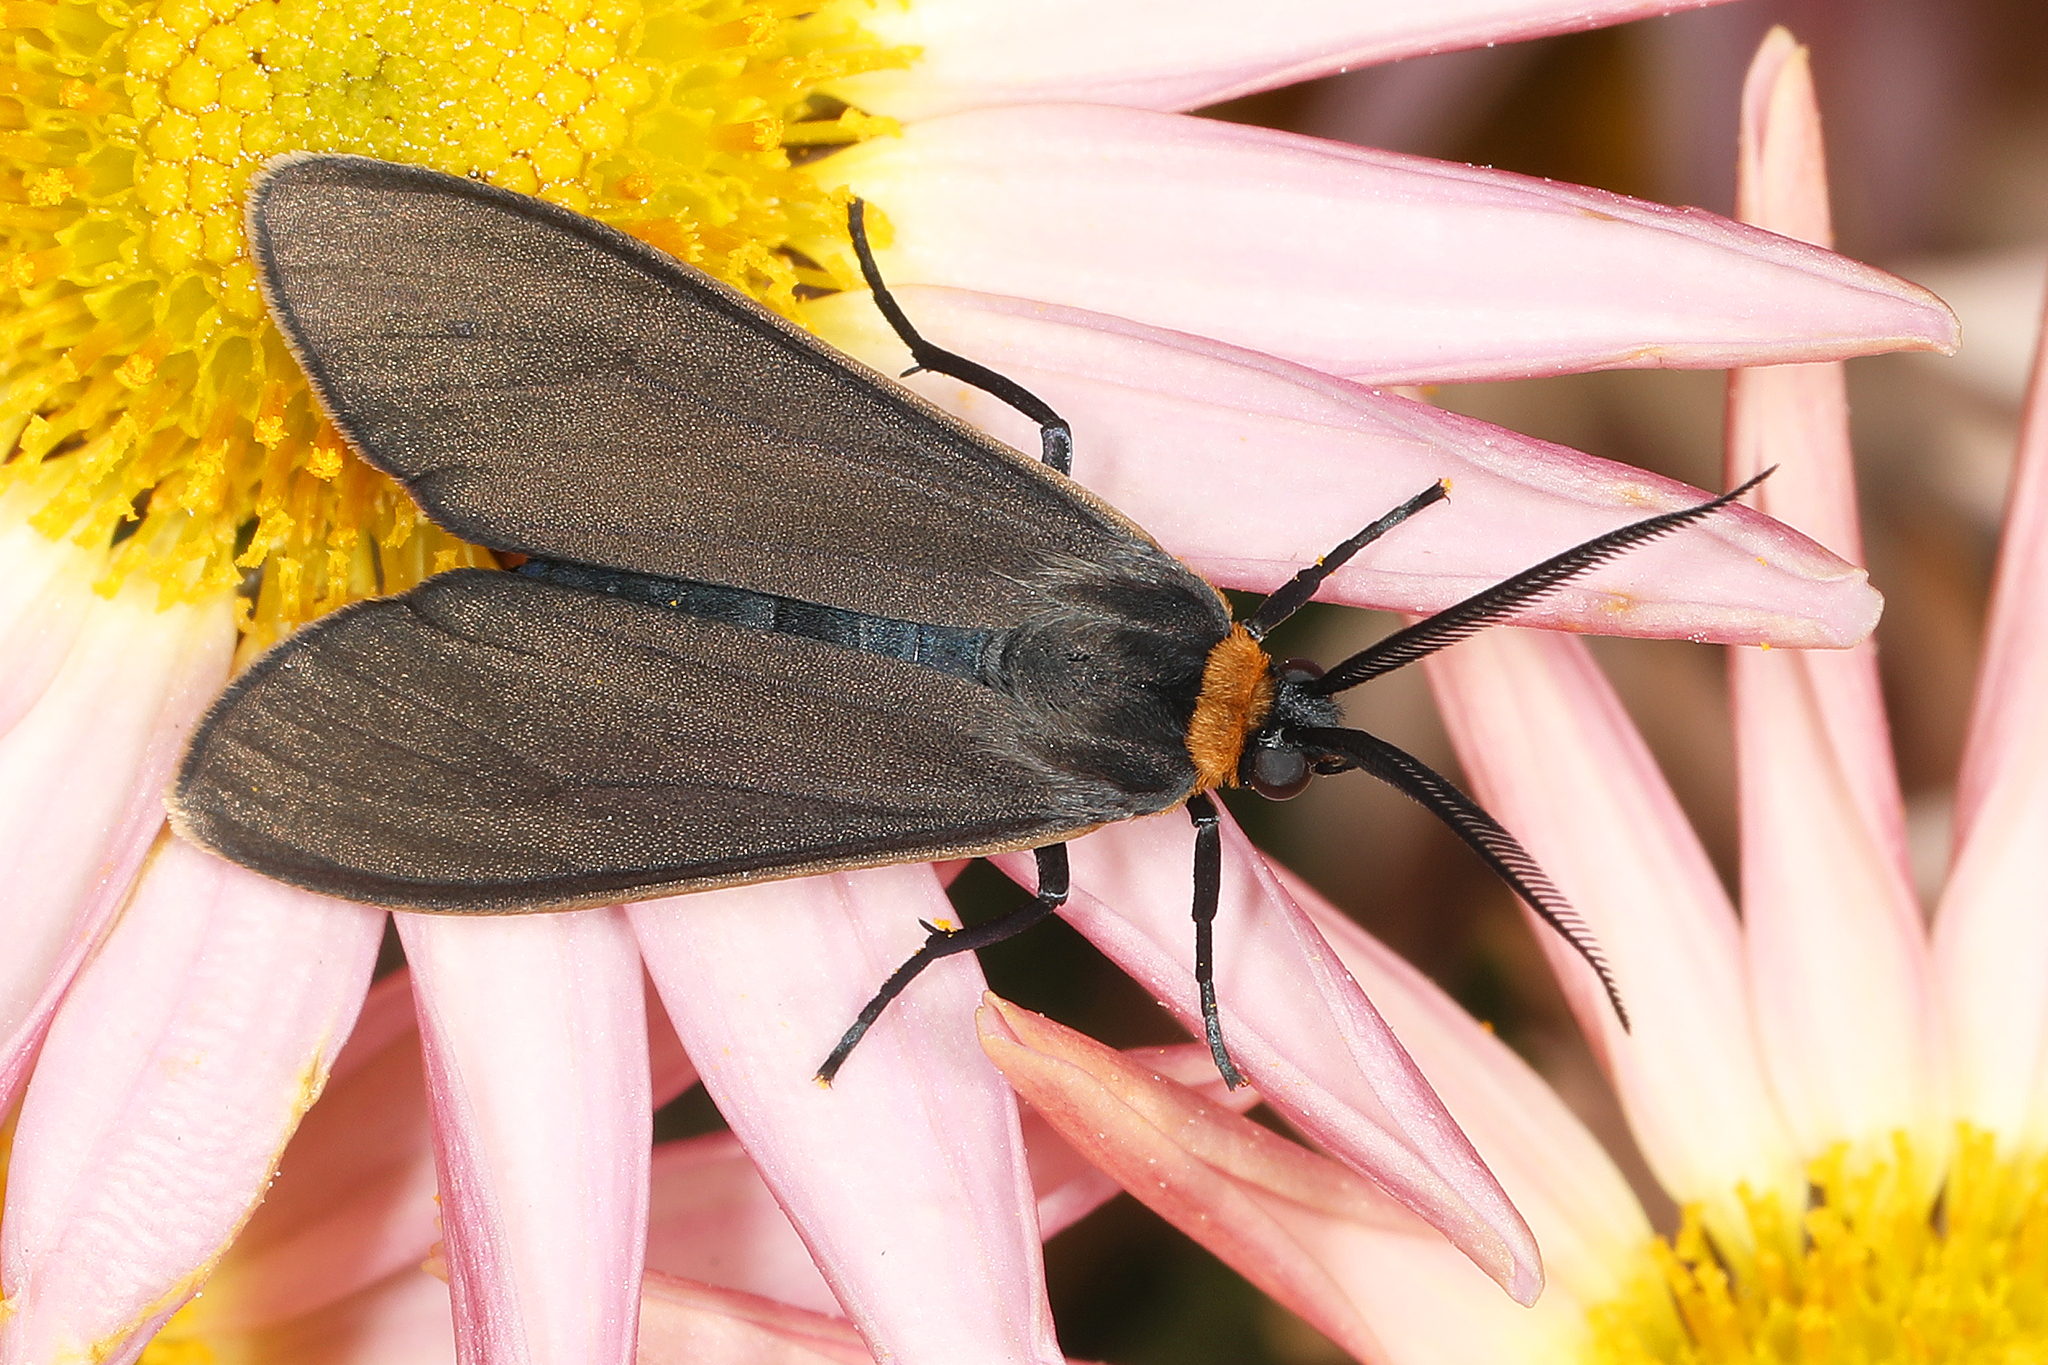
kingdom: Animalia
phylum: Arthropoda
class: Insecta
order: Lepidoptera
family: Erebidae
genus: Cisseps
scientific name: Cisseps fulvicollis
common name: Yellow-collared scape moth
